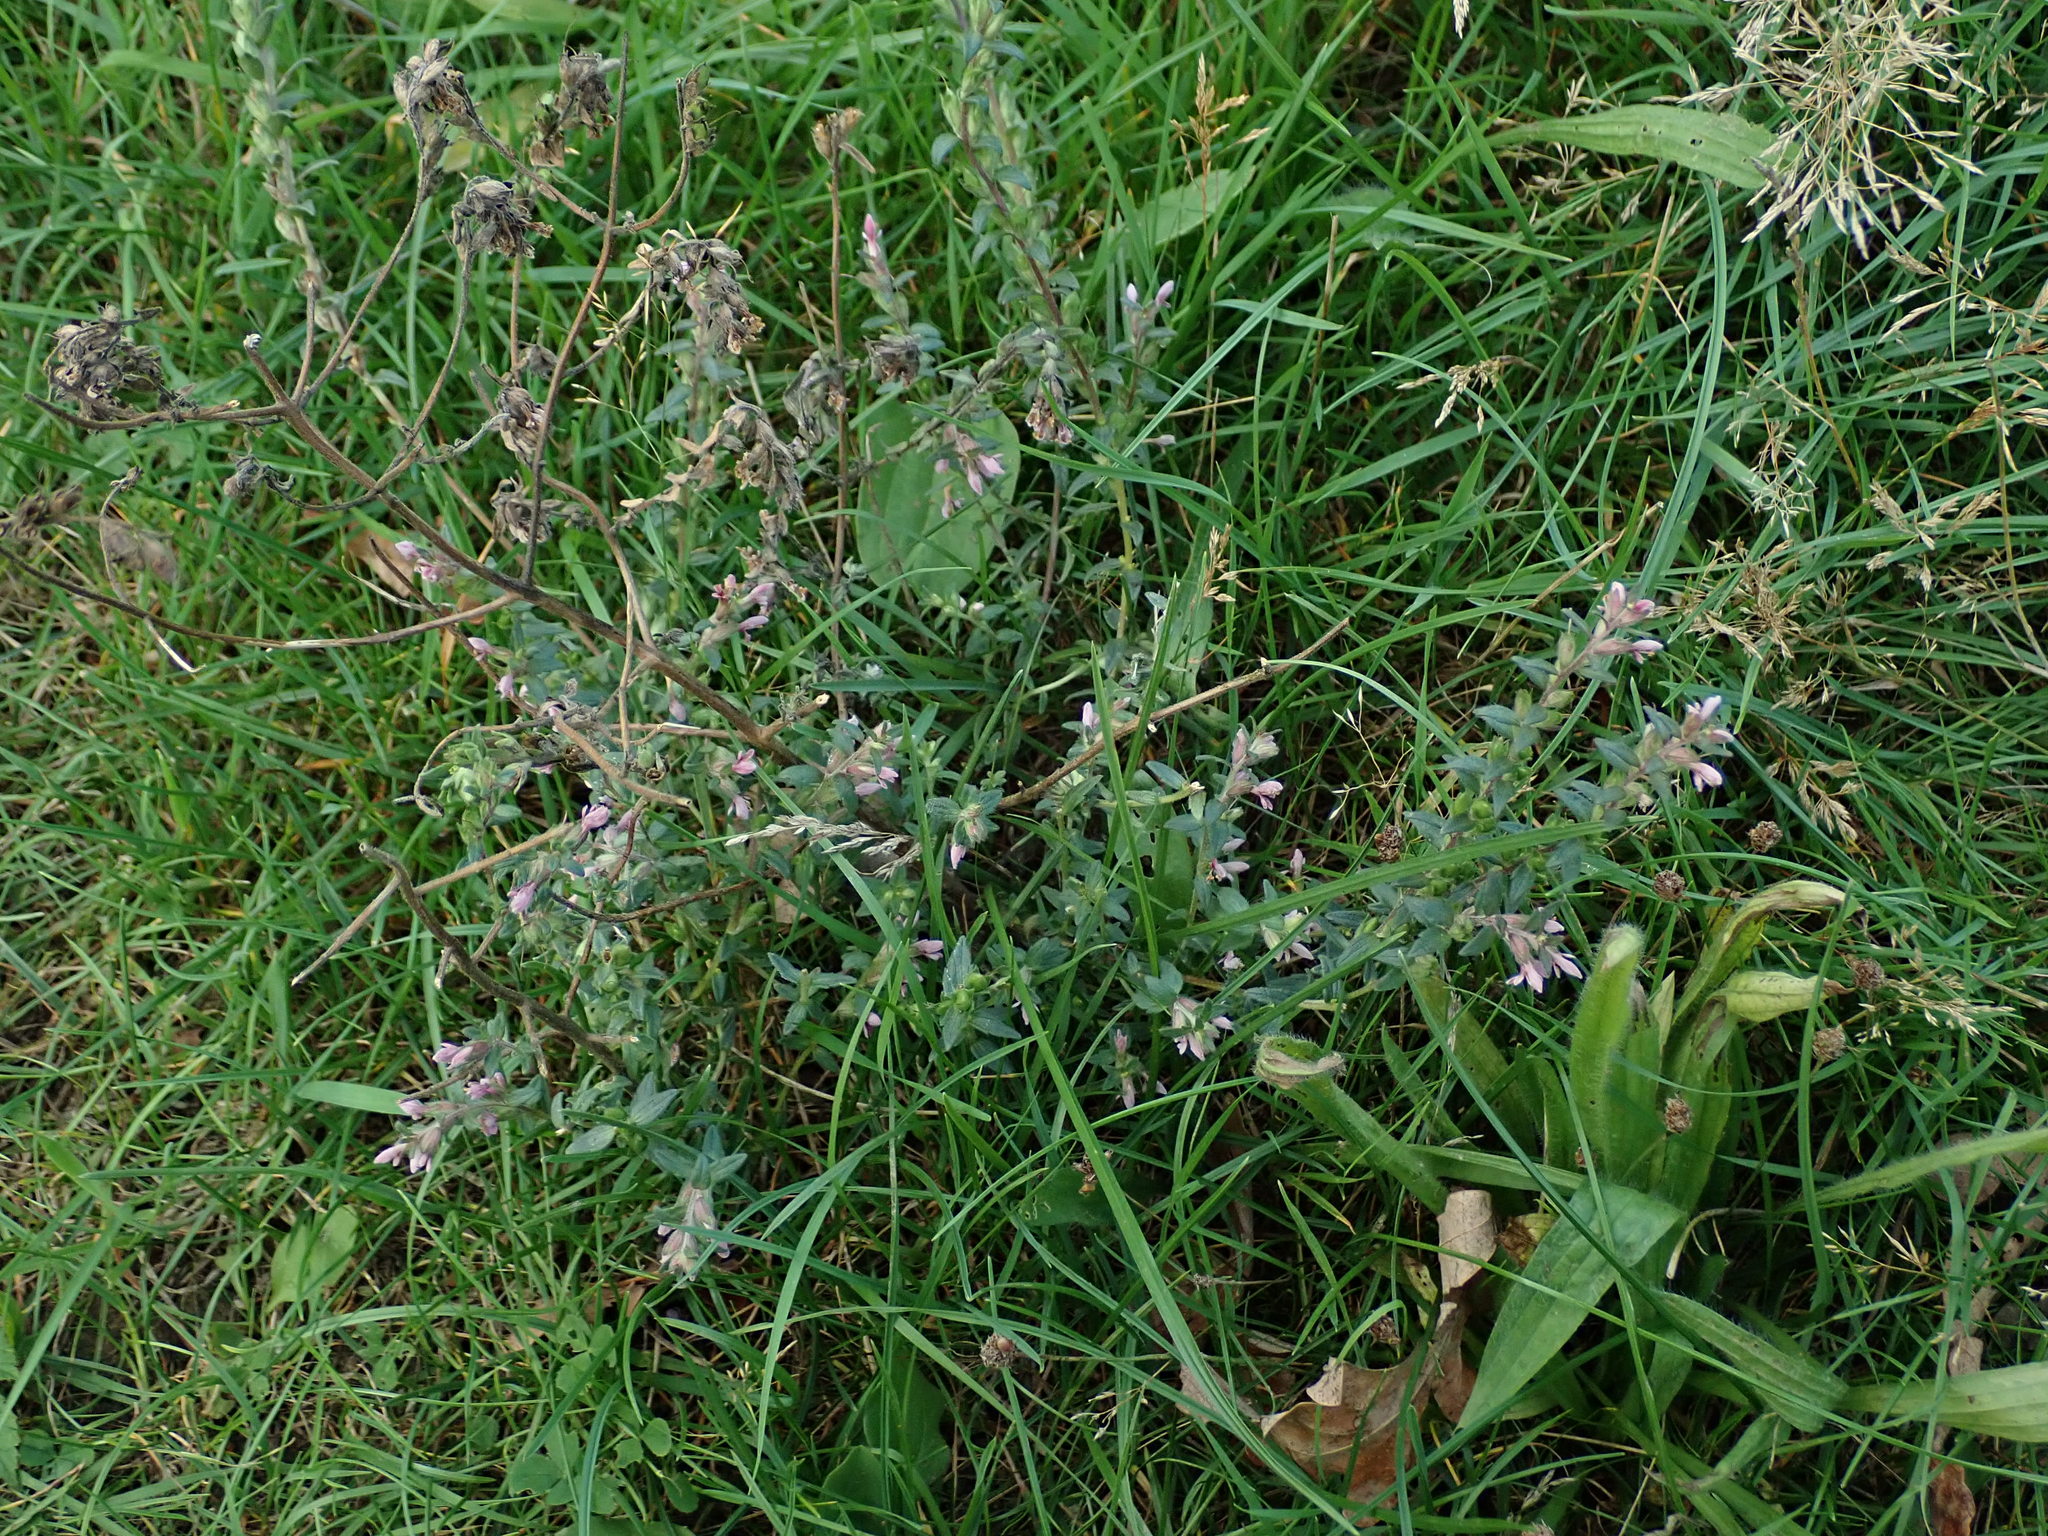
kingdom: Plantae
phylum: Tracheophyta
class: Magnoliopsida
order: Lamiales
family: Orobanchaceae
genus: Odontites
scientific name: Odontites vernus
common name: Red bartsia
